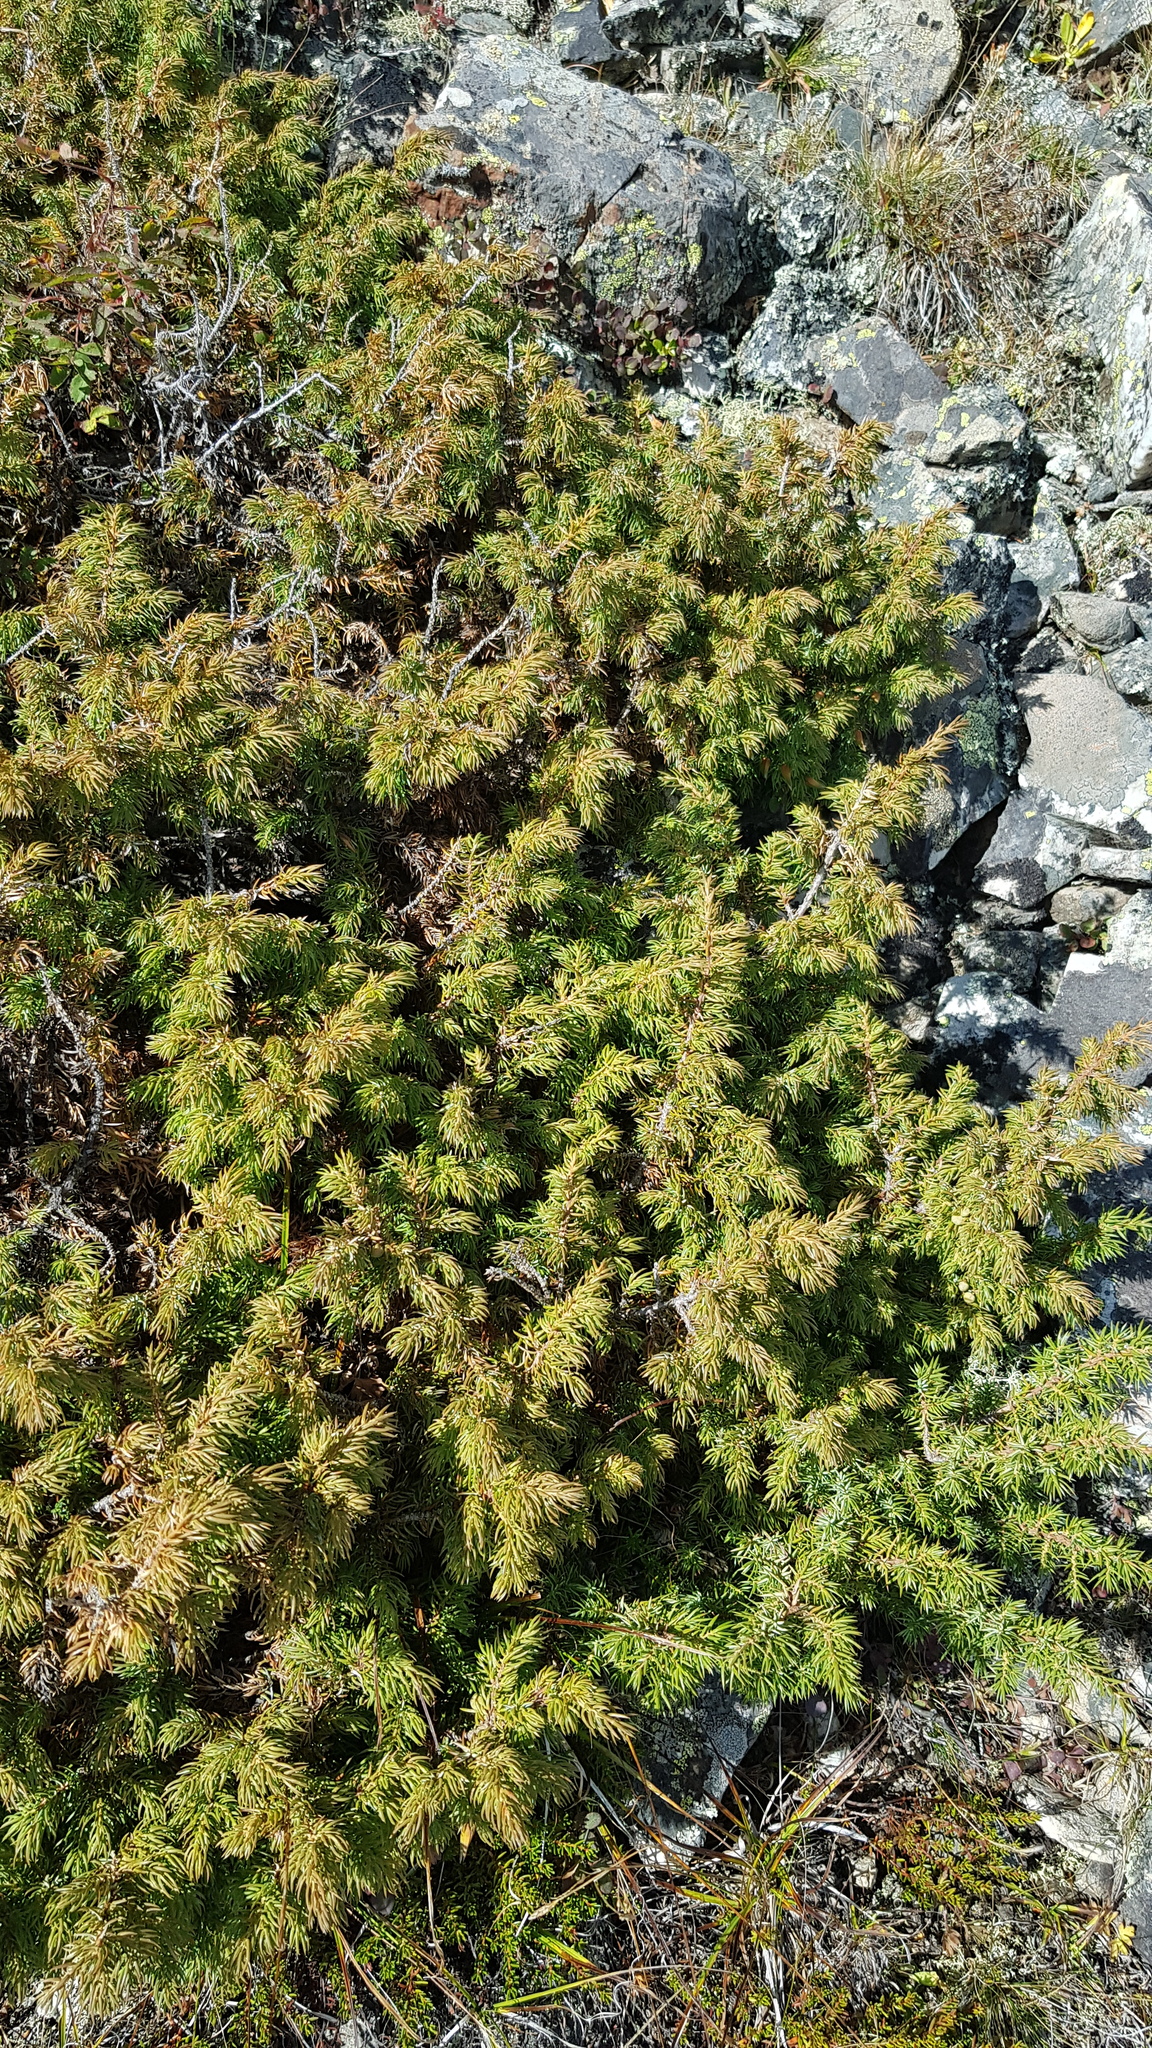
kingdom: Plantae
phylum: Tracheophyta
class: Pinopsida
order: Pinales
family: Cupressaceae
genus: Juniperus
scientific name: Juniperus communis
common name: Common juniper
